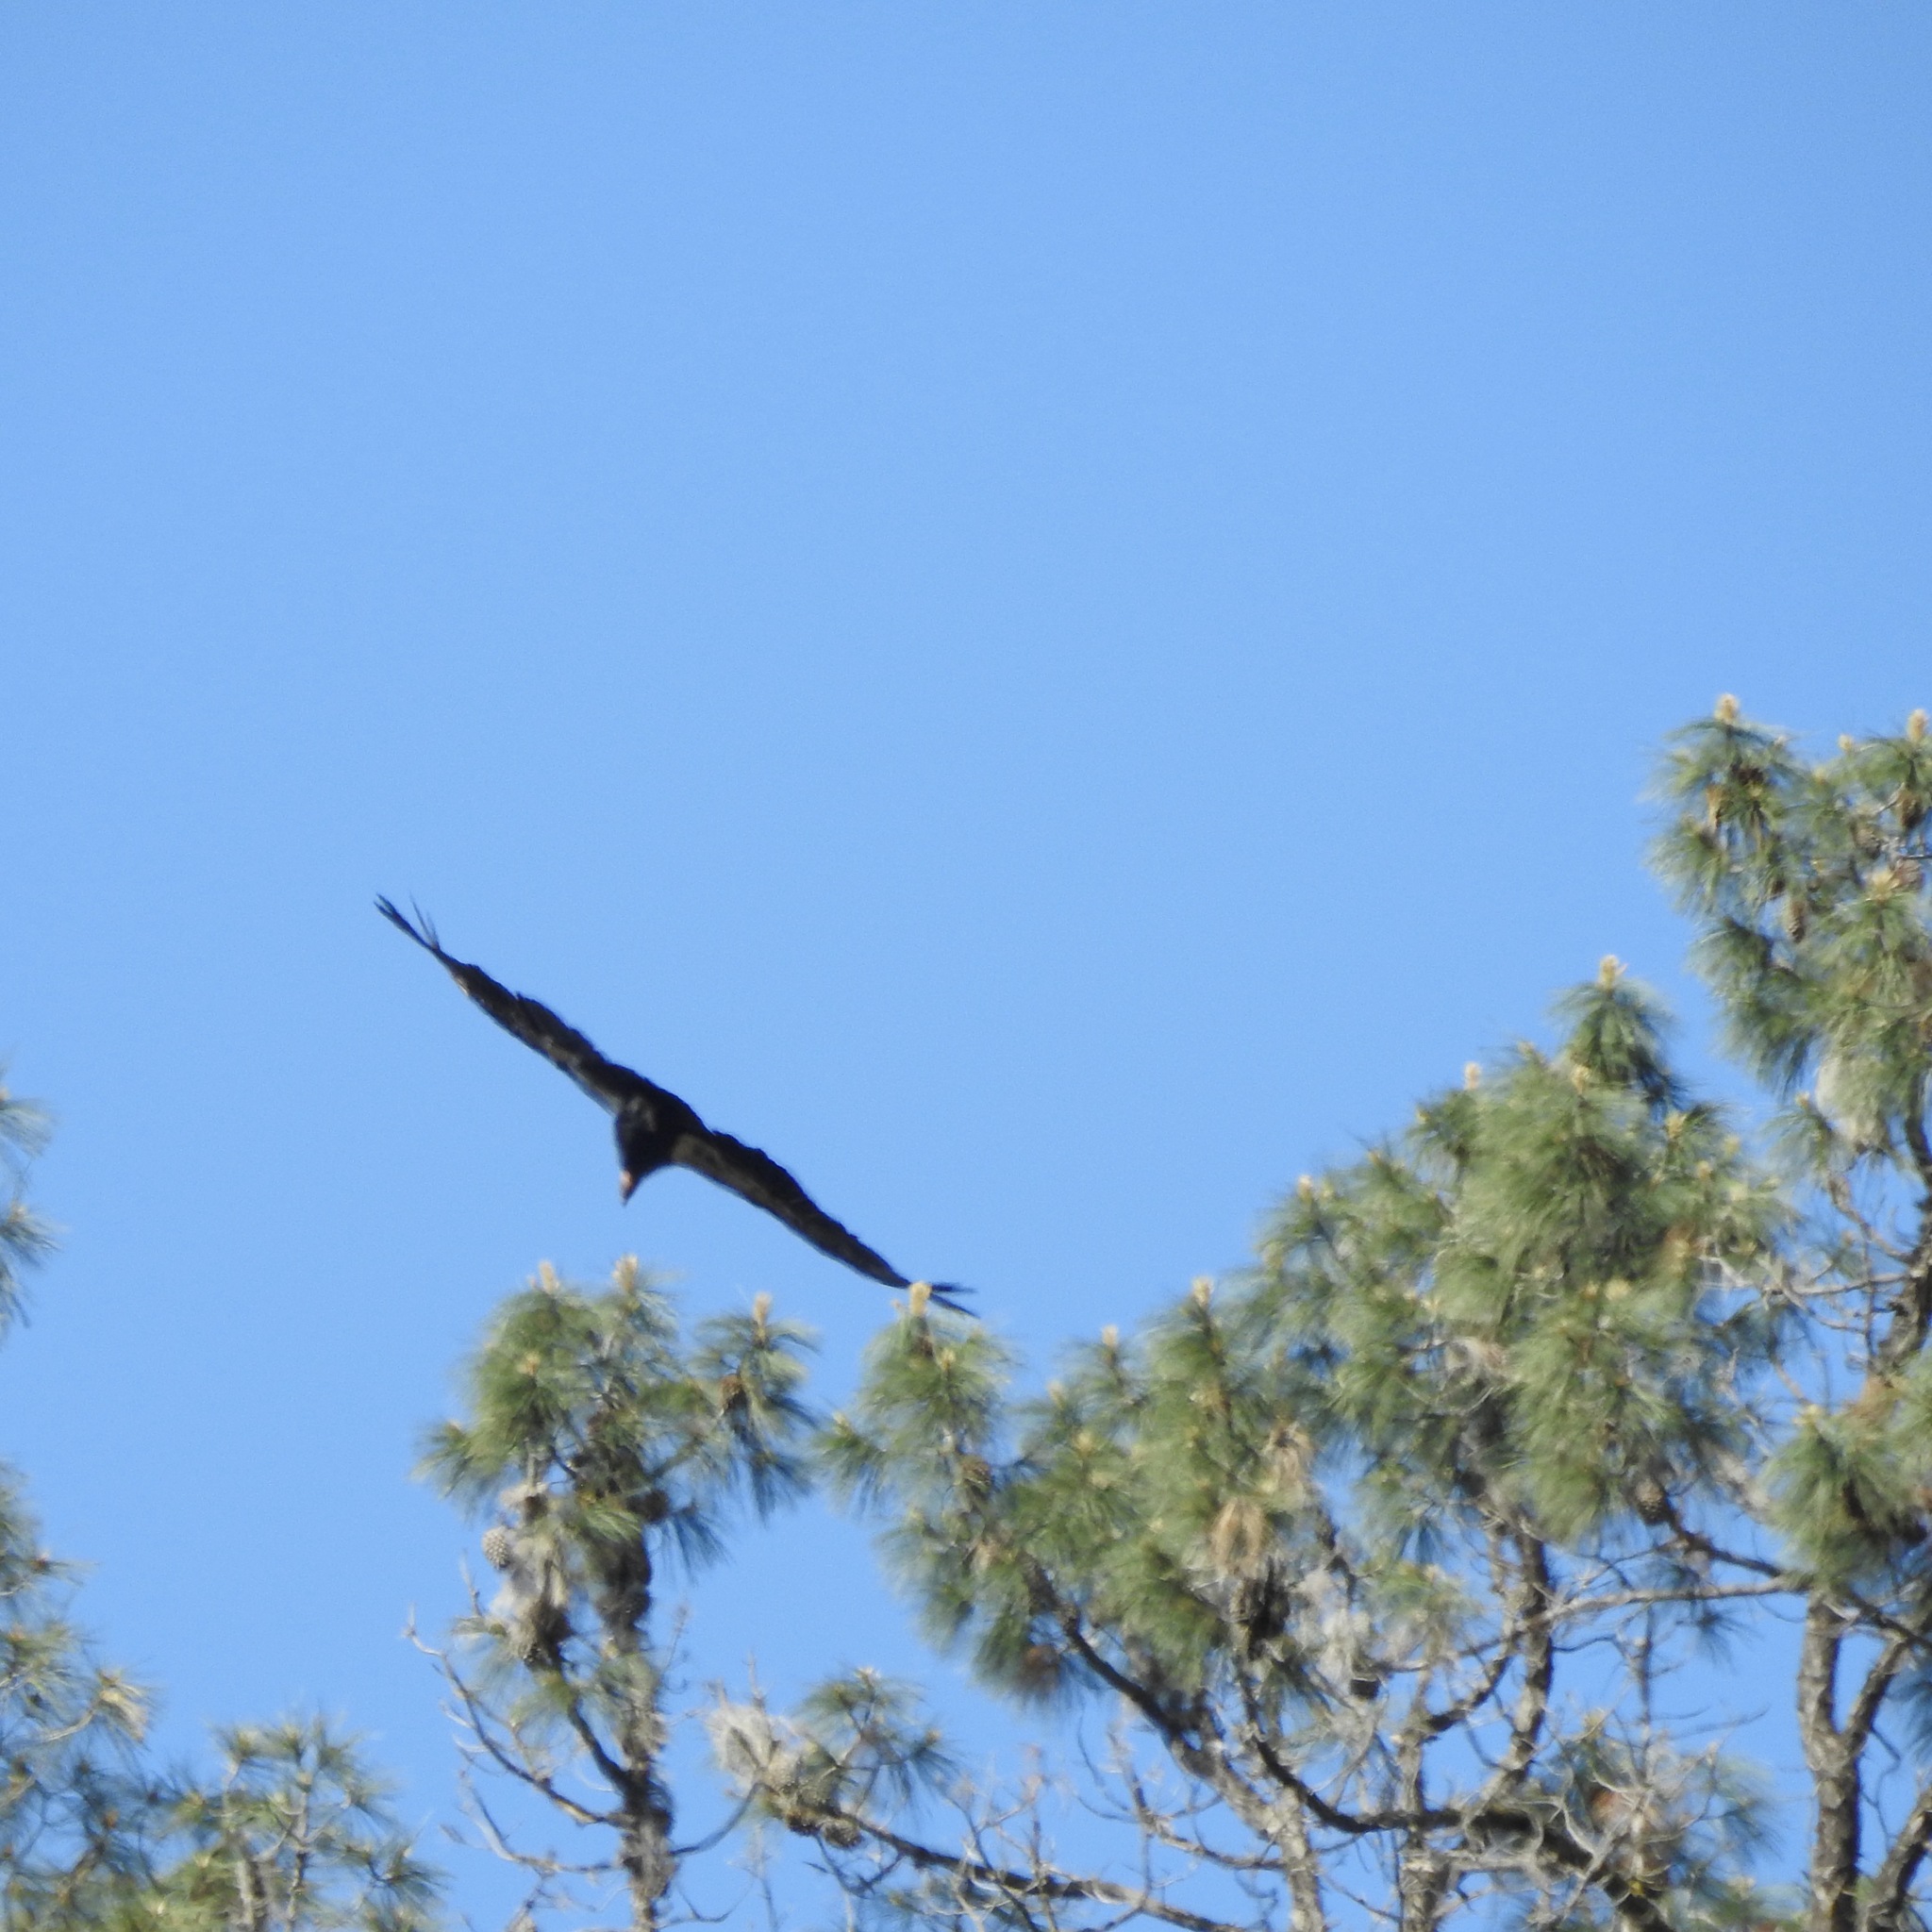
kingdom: Animalia
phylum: Chordata
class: Aves
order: Accipitriformes
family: Cathartidae
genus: Gymnogyps
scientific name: Gymnogyps californianus
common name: California condor
